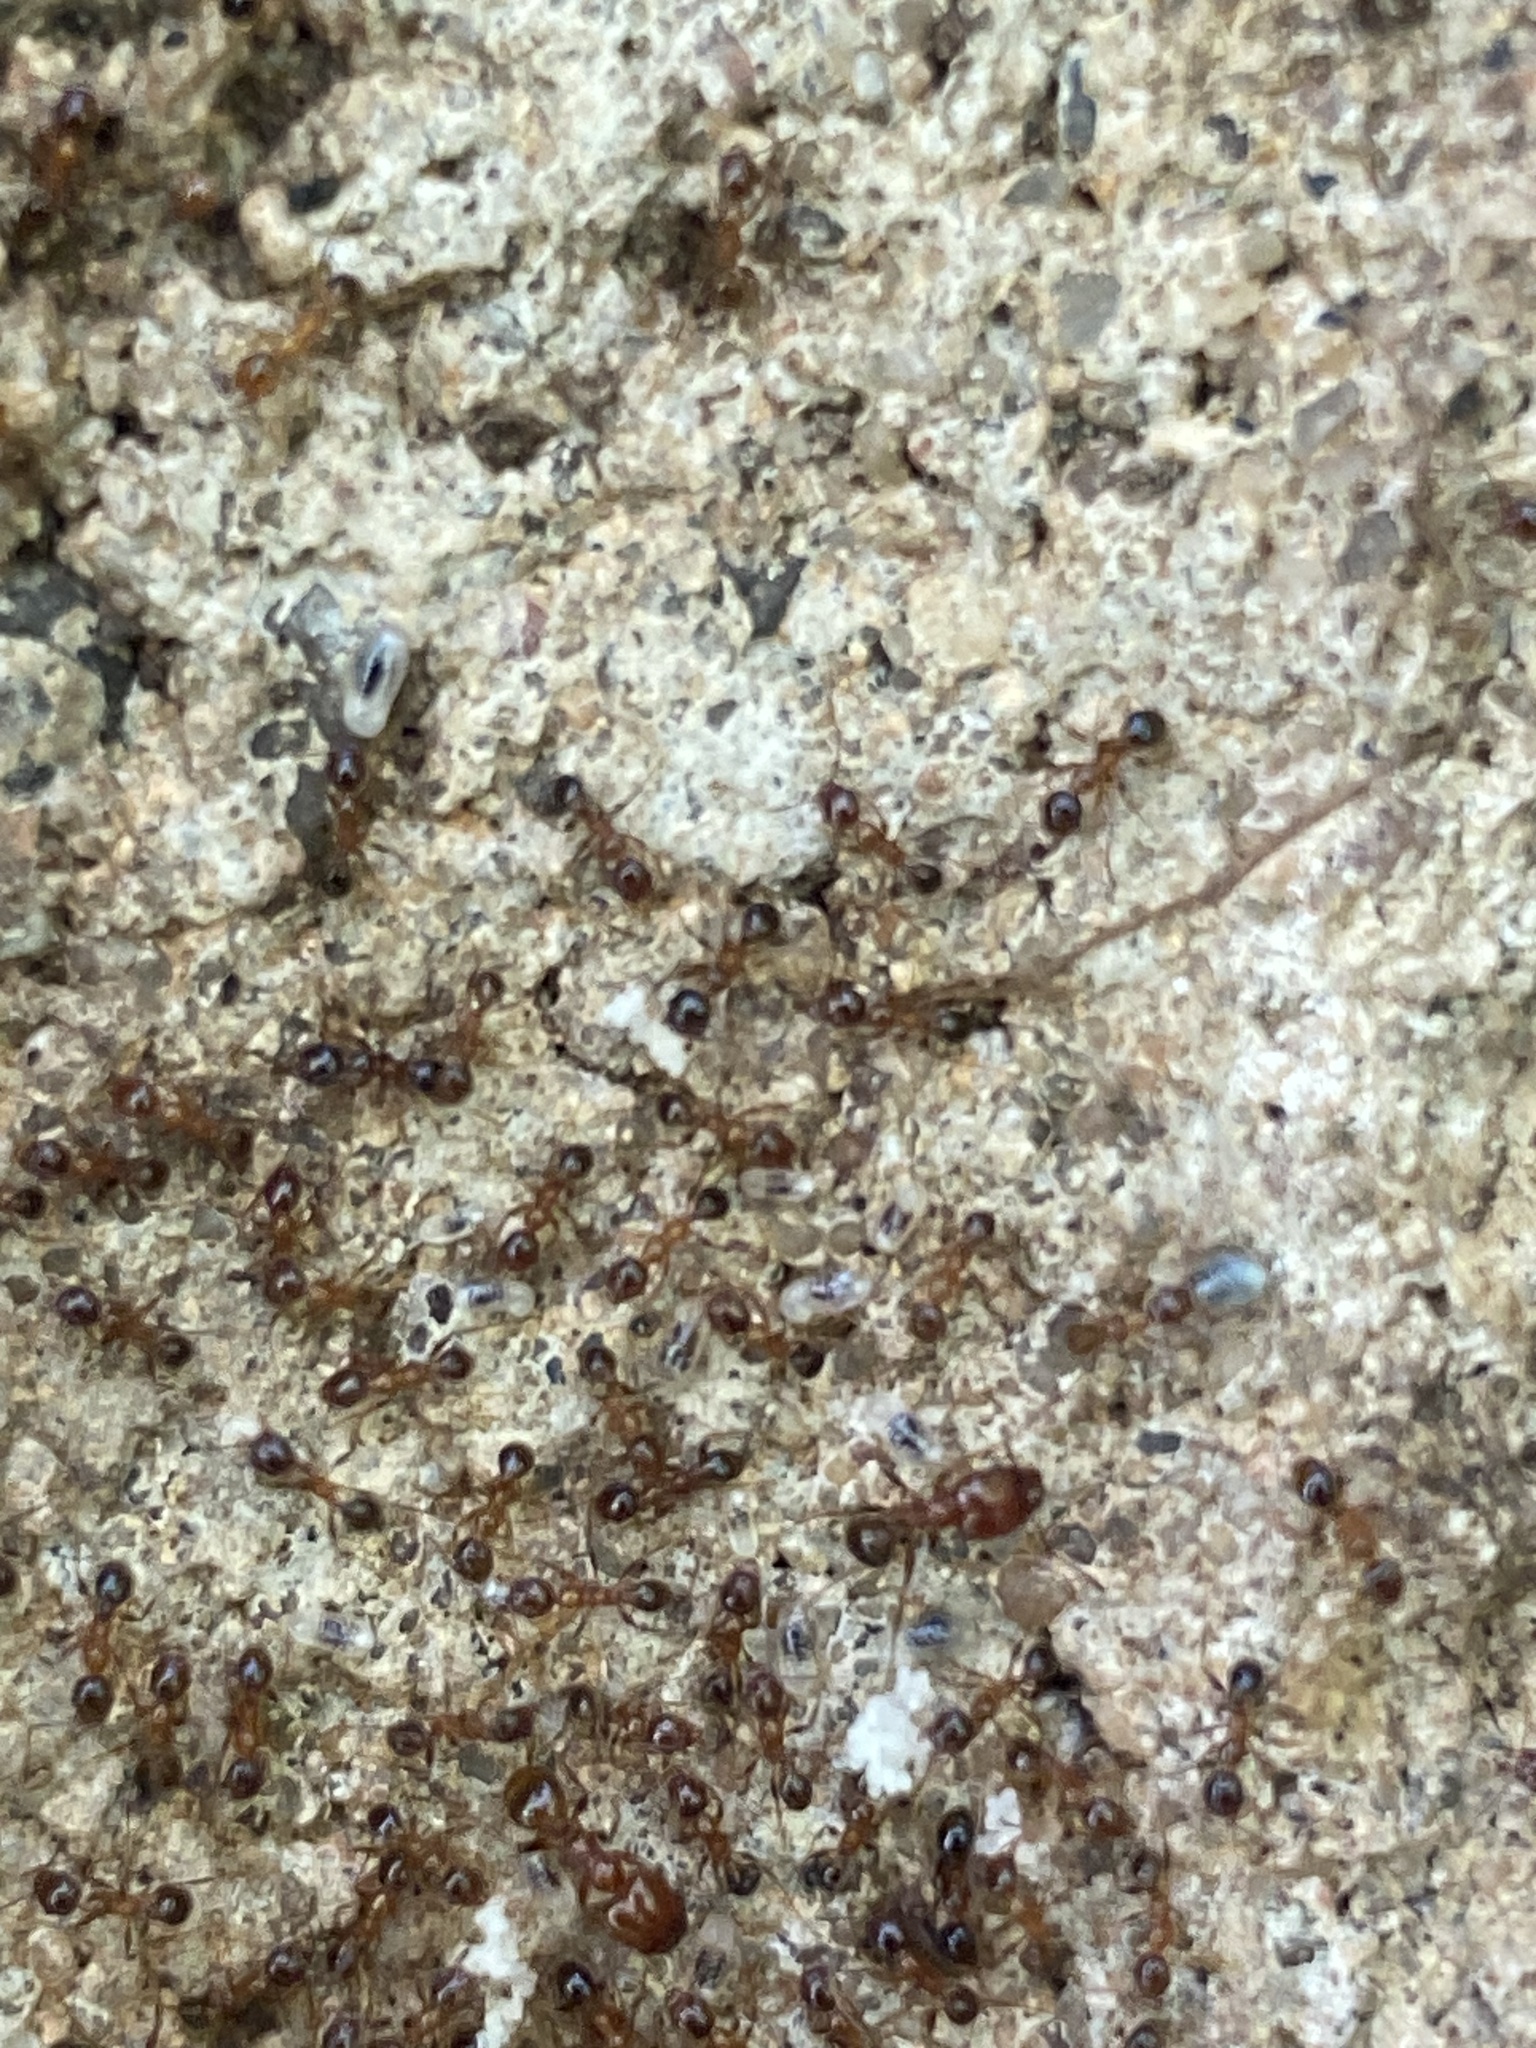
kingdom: Animalia
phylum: Arthropoda
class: Insecta
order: Hymenoptera
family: Formicidae
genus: Pheidole
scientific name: Pheidole dentata
